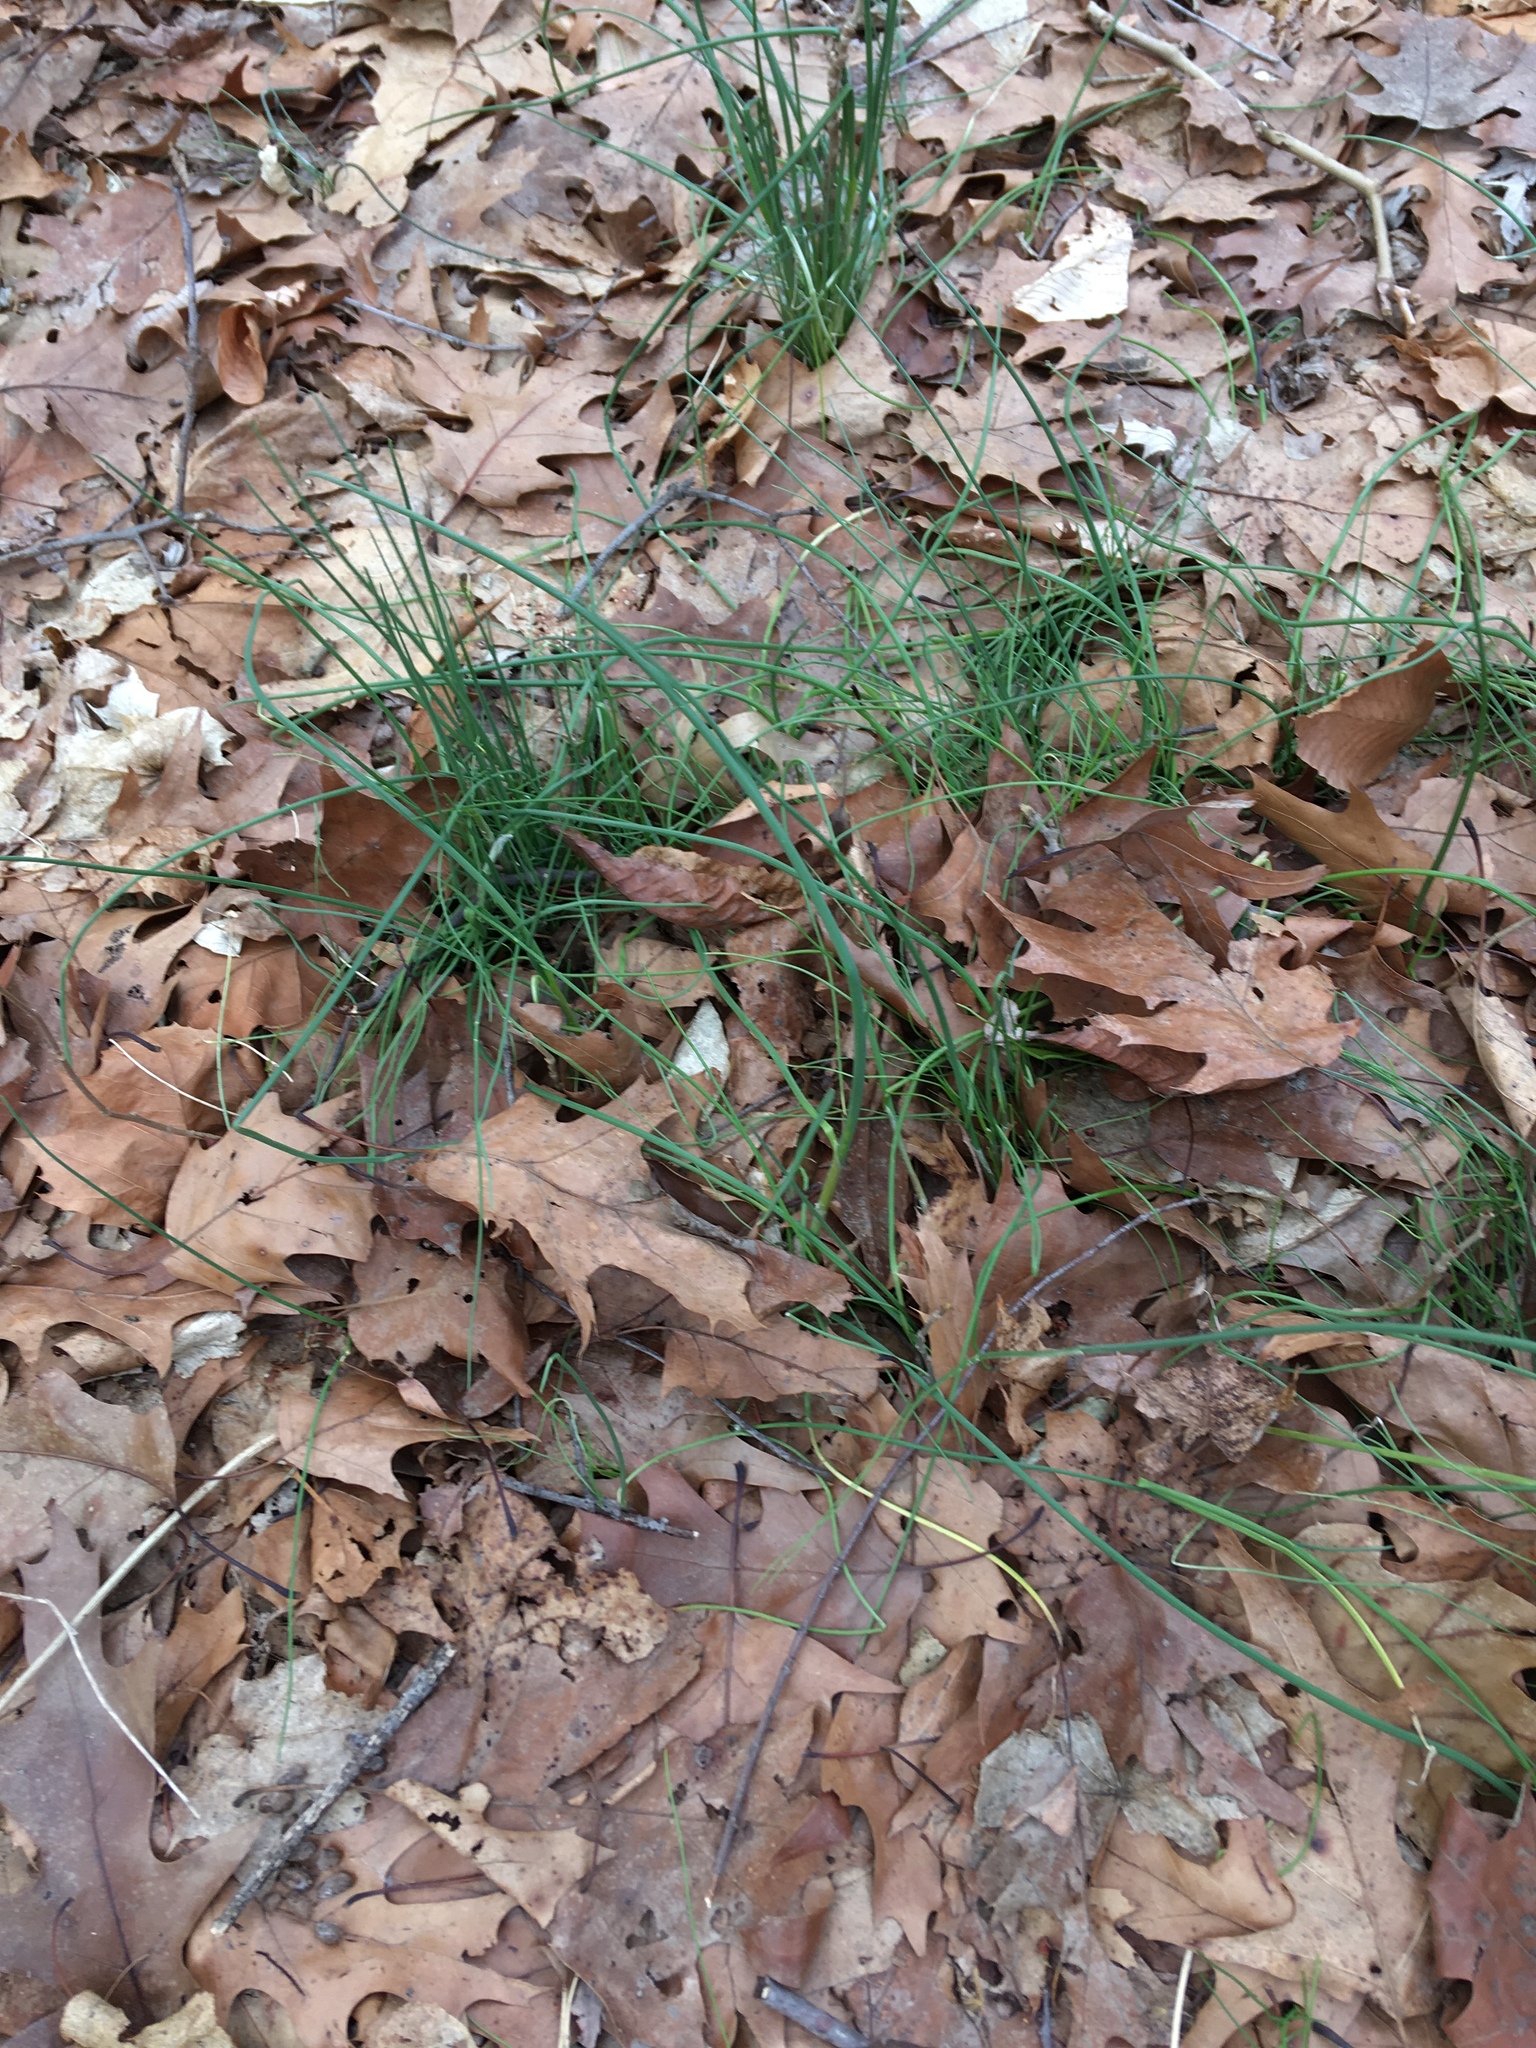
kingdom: Plantae
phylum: Tracheophyta
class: Liliopsida
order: Asparagales
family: Amaryllidaceae
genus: Allium
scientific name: Allium vineale
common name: Crow garlic
